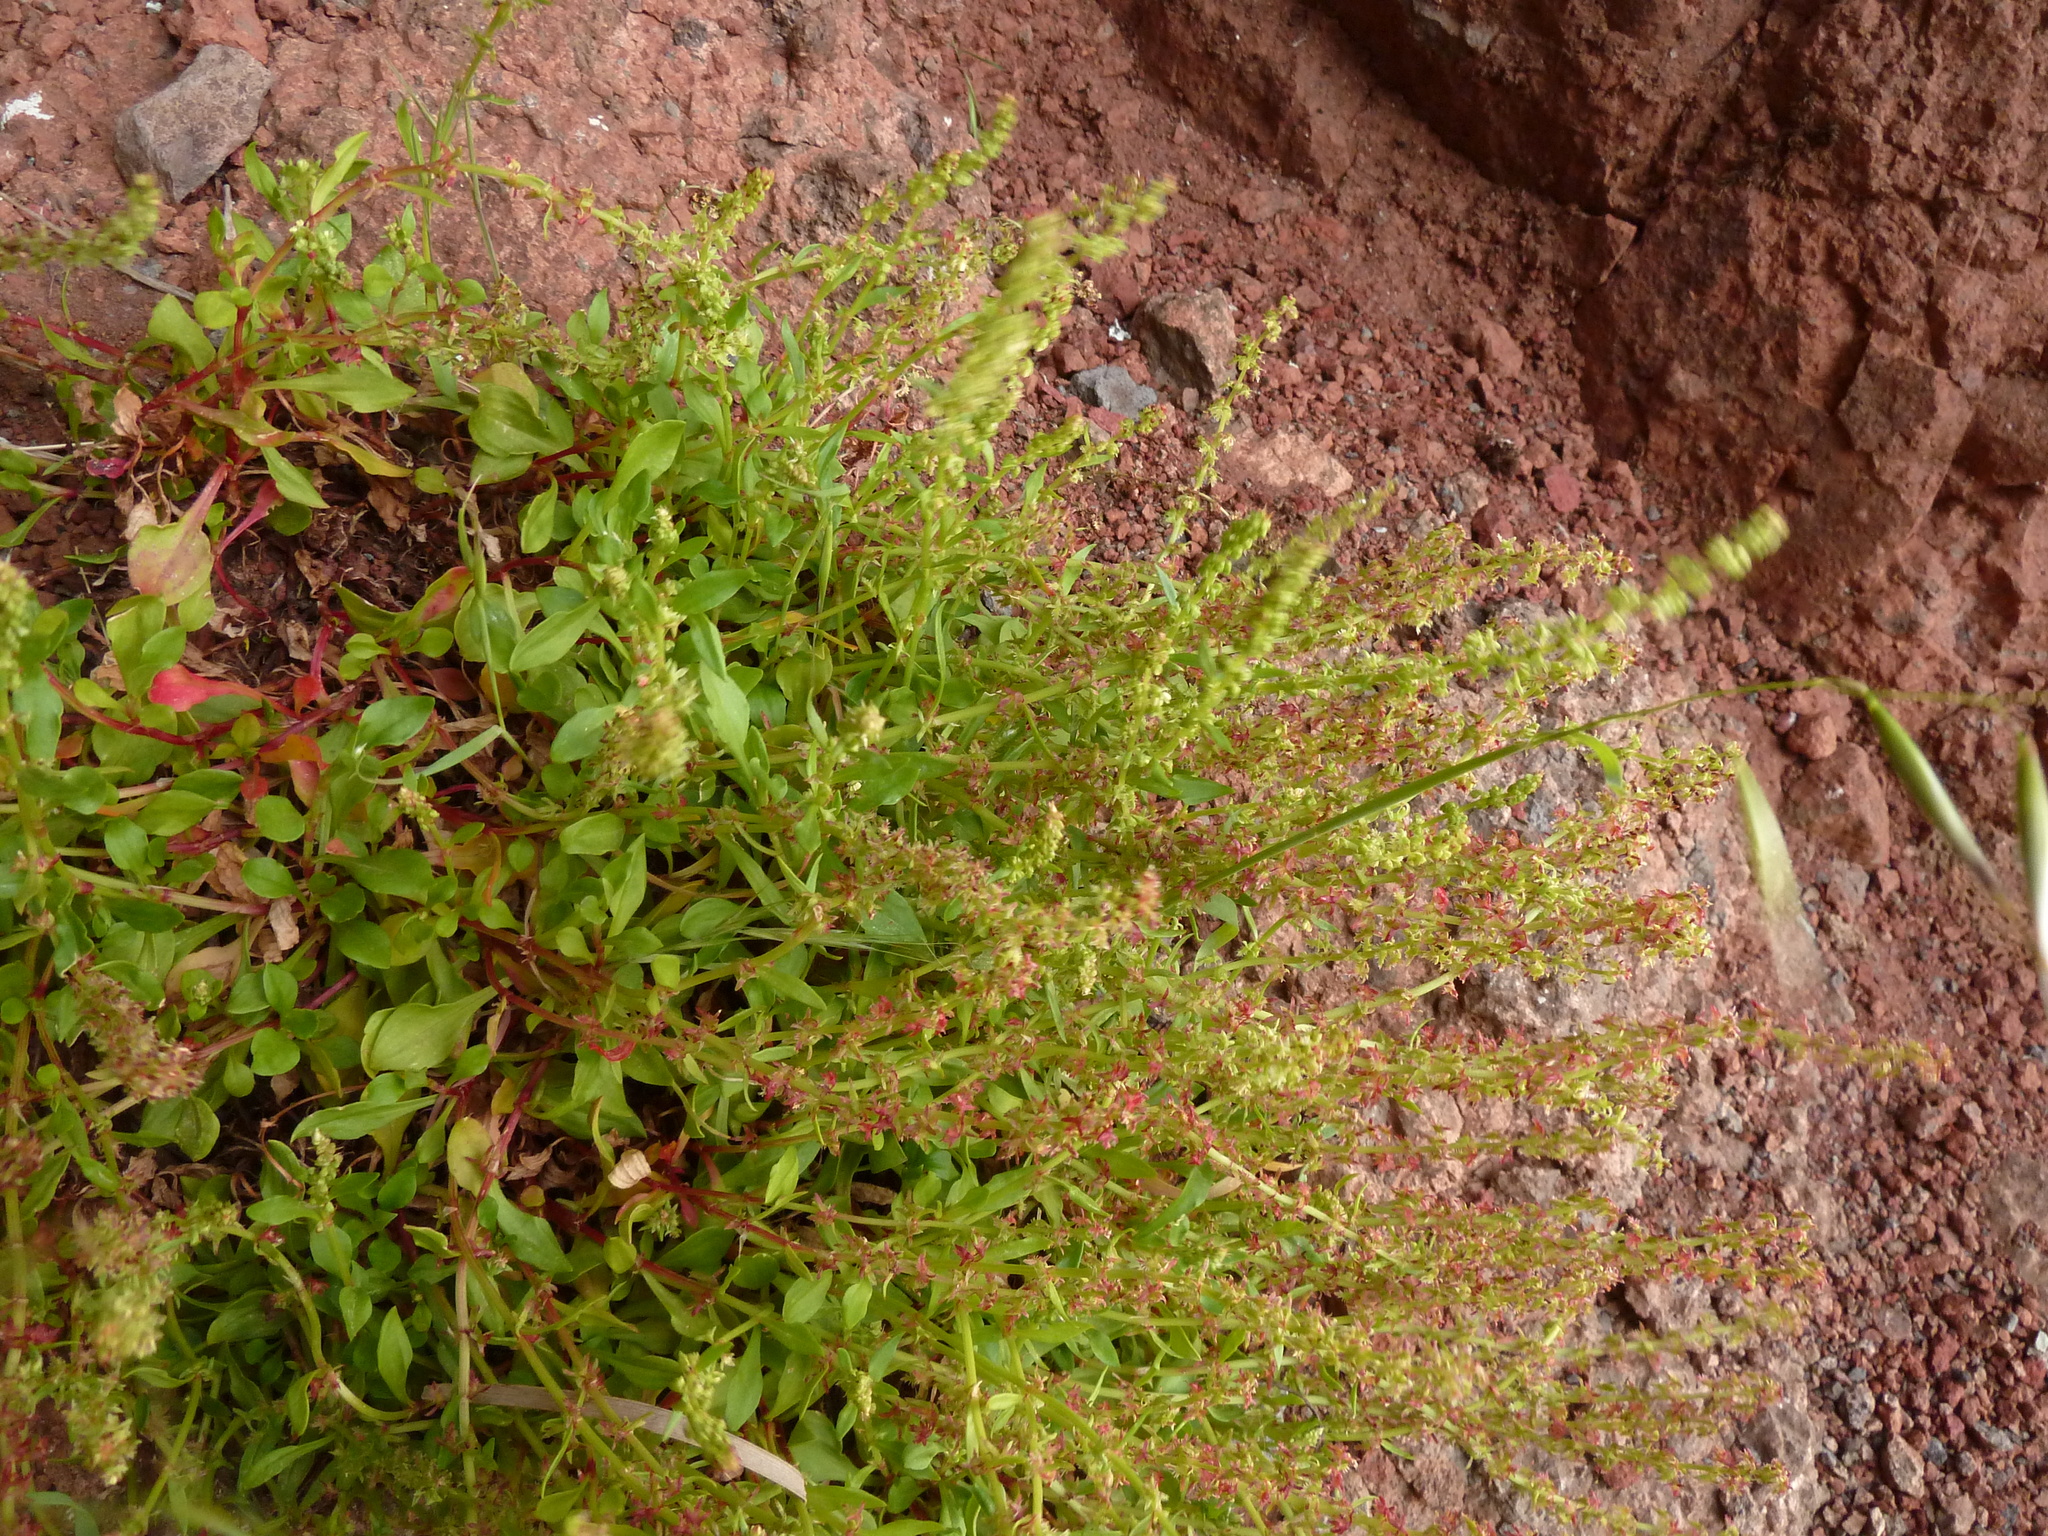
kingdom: Plantae
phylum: Tracheophyta
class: Magnoliopsida
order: Caryophyllales
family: Polygonaceae
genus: Rumex
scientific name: Rumex bucephalophorus
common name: Red dock
